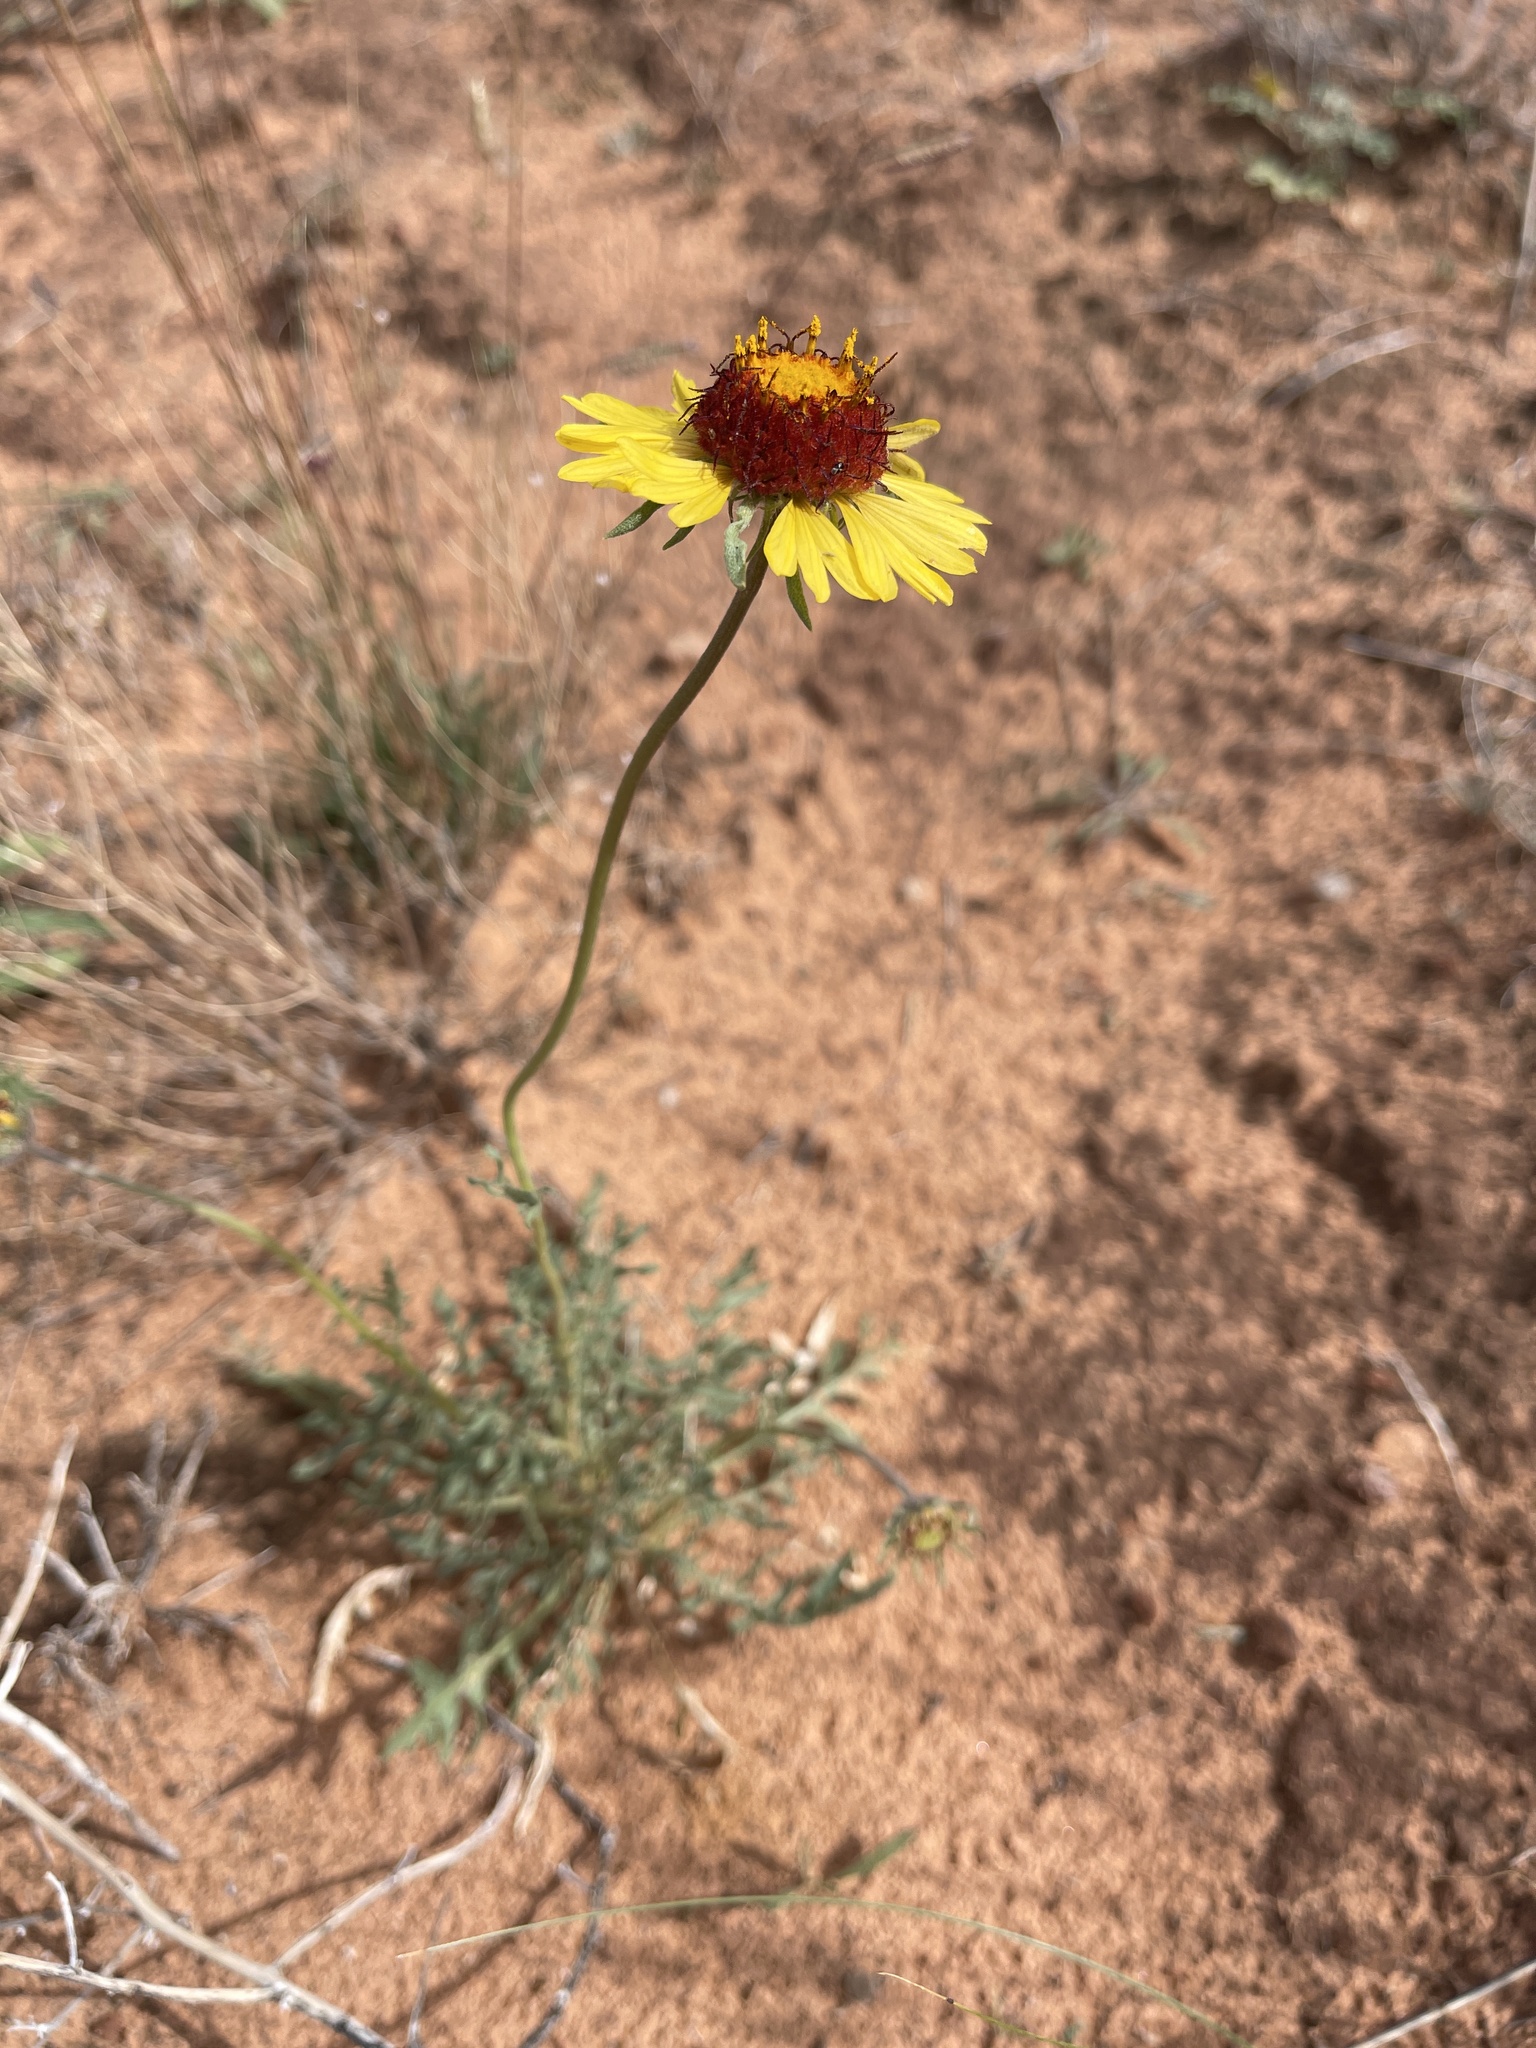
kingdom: Plantae
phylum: Tracheophyta
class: Magnoliopsida
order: Asterales
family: Asteraceae
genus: Gaillardia
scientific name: Gaillardia pinnatifida
